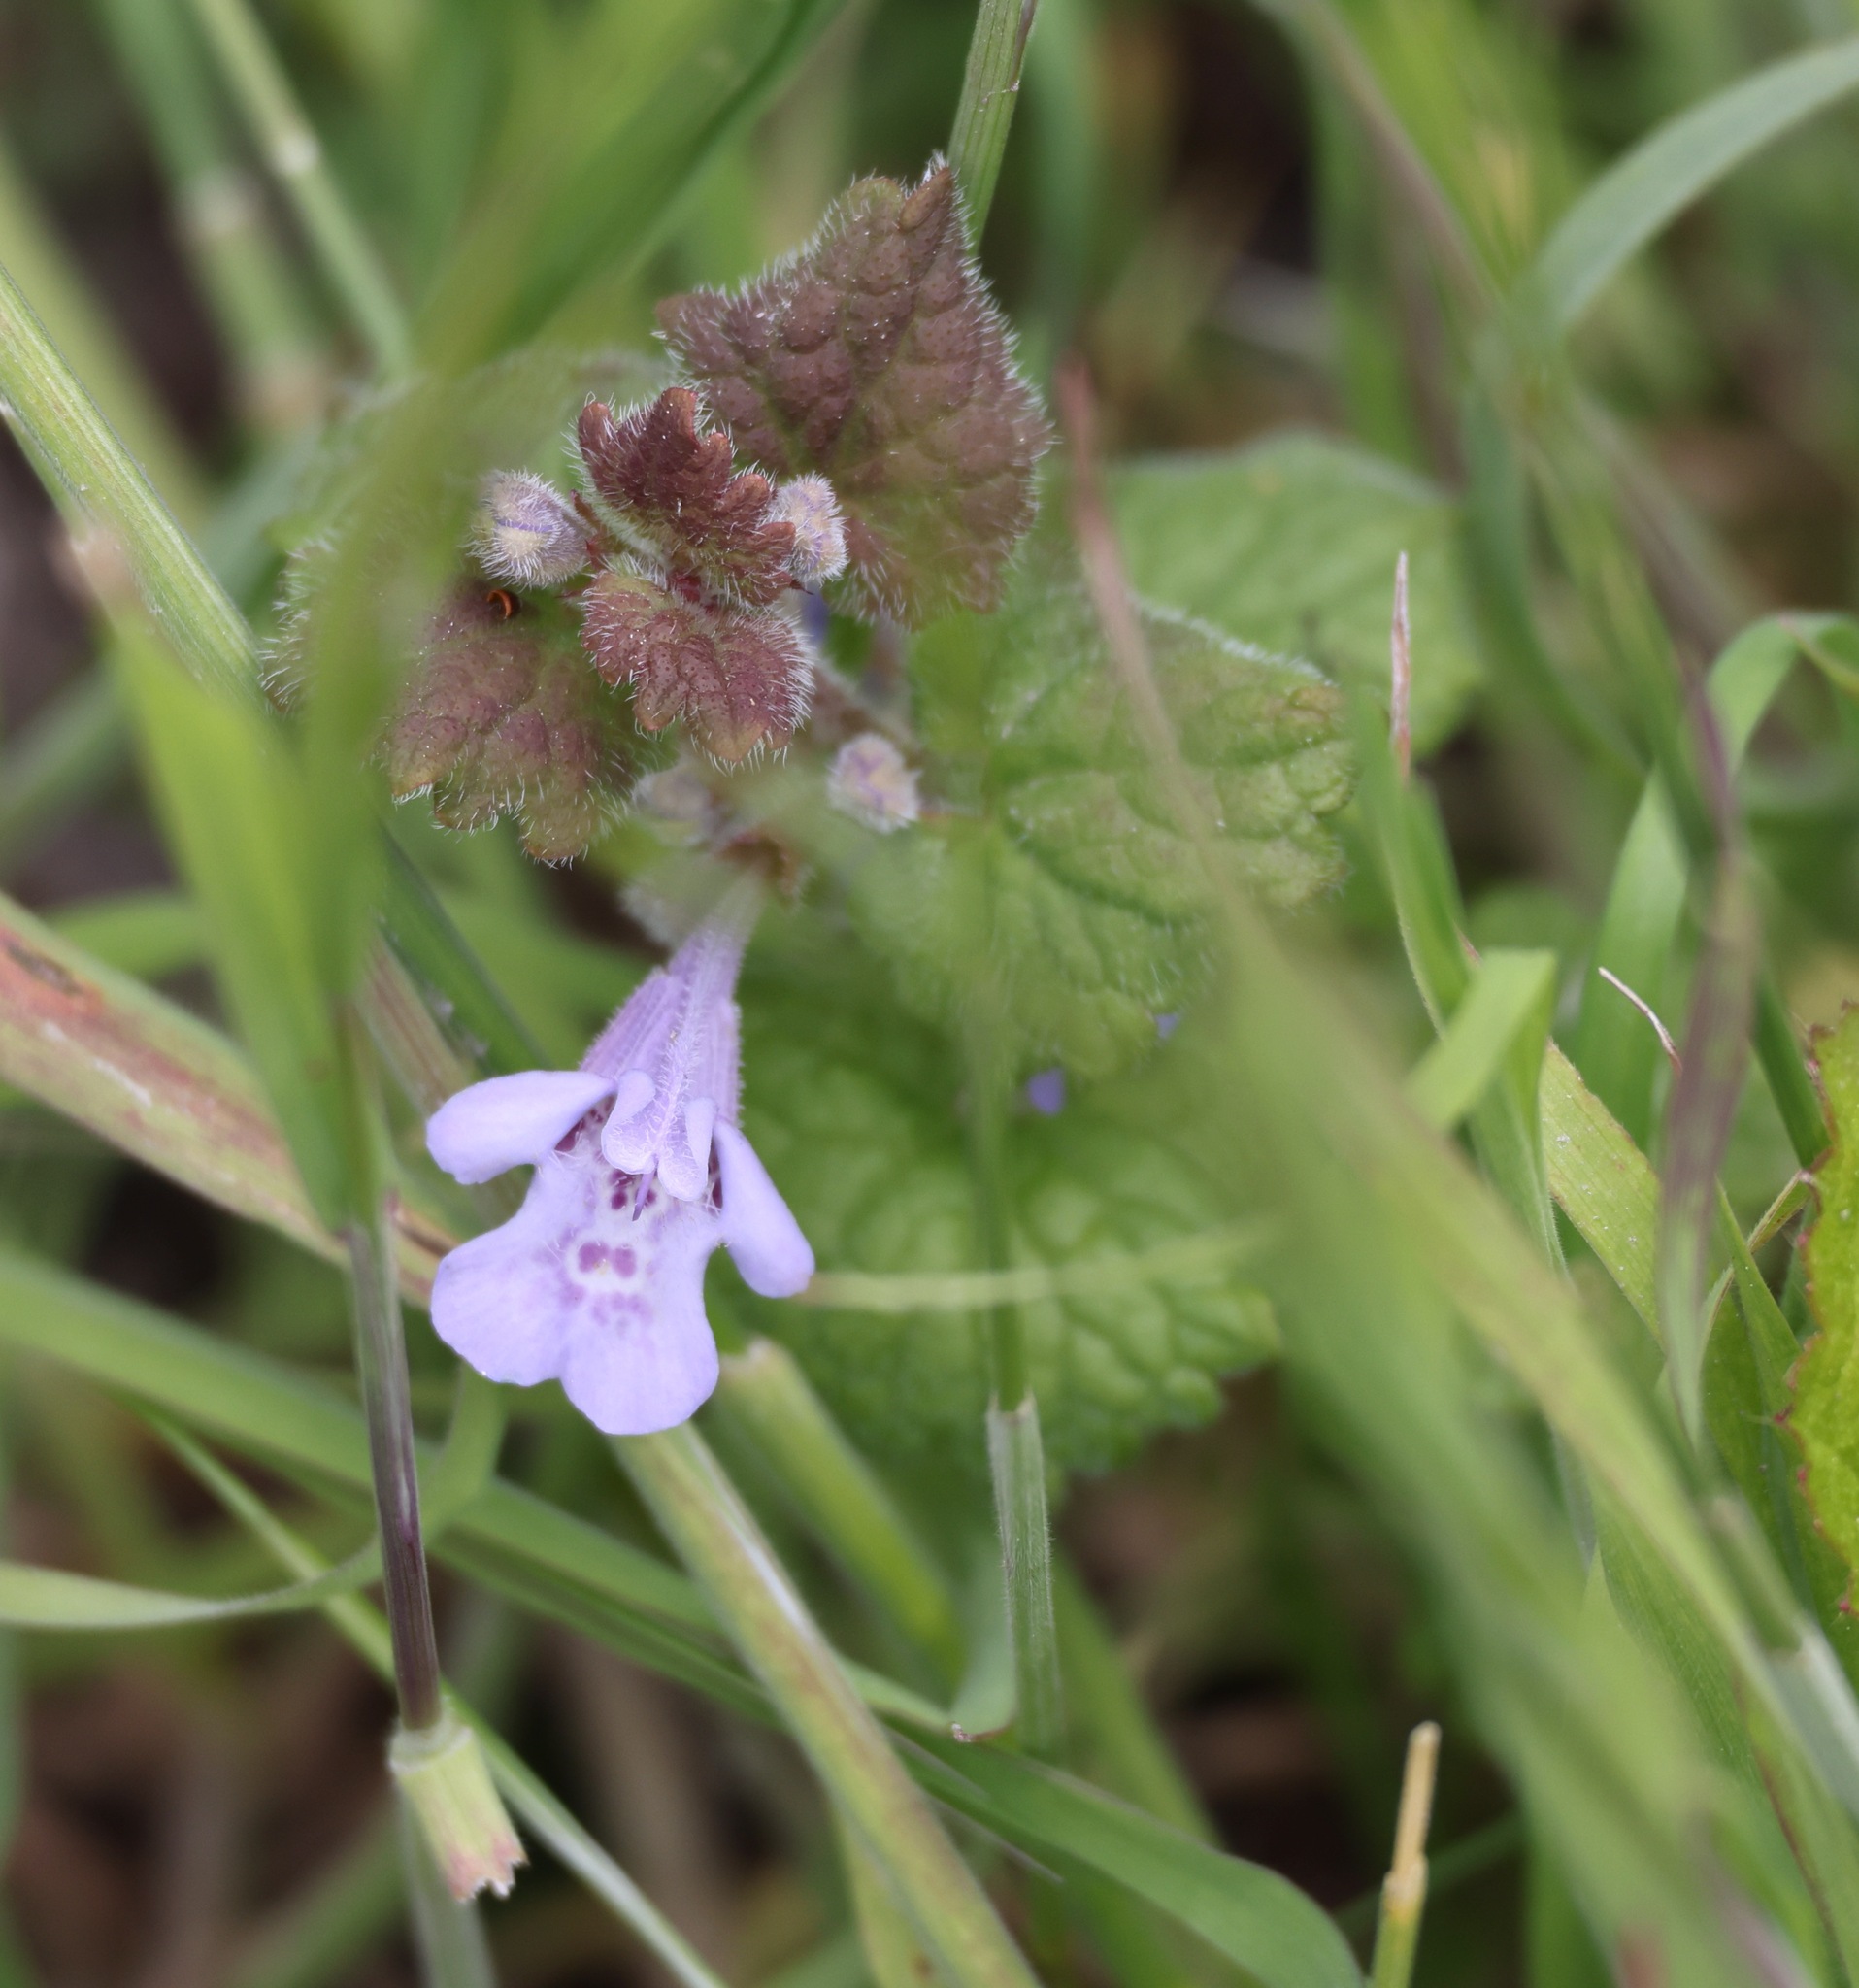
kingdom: Plantae
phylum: Tracheophyta
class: Magnoliopsida
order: Lamiales
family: Lamiaceae
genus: Glechoma
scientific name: Glechoma hederacea
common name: Ground ivy
